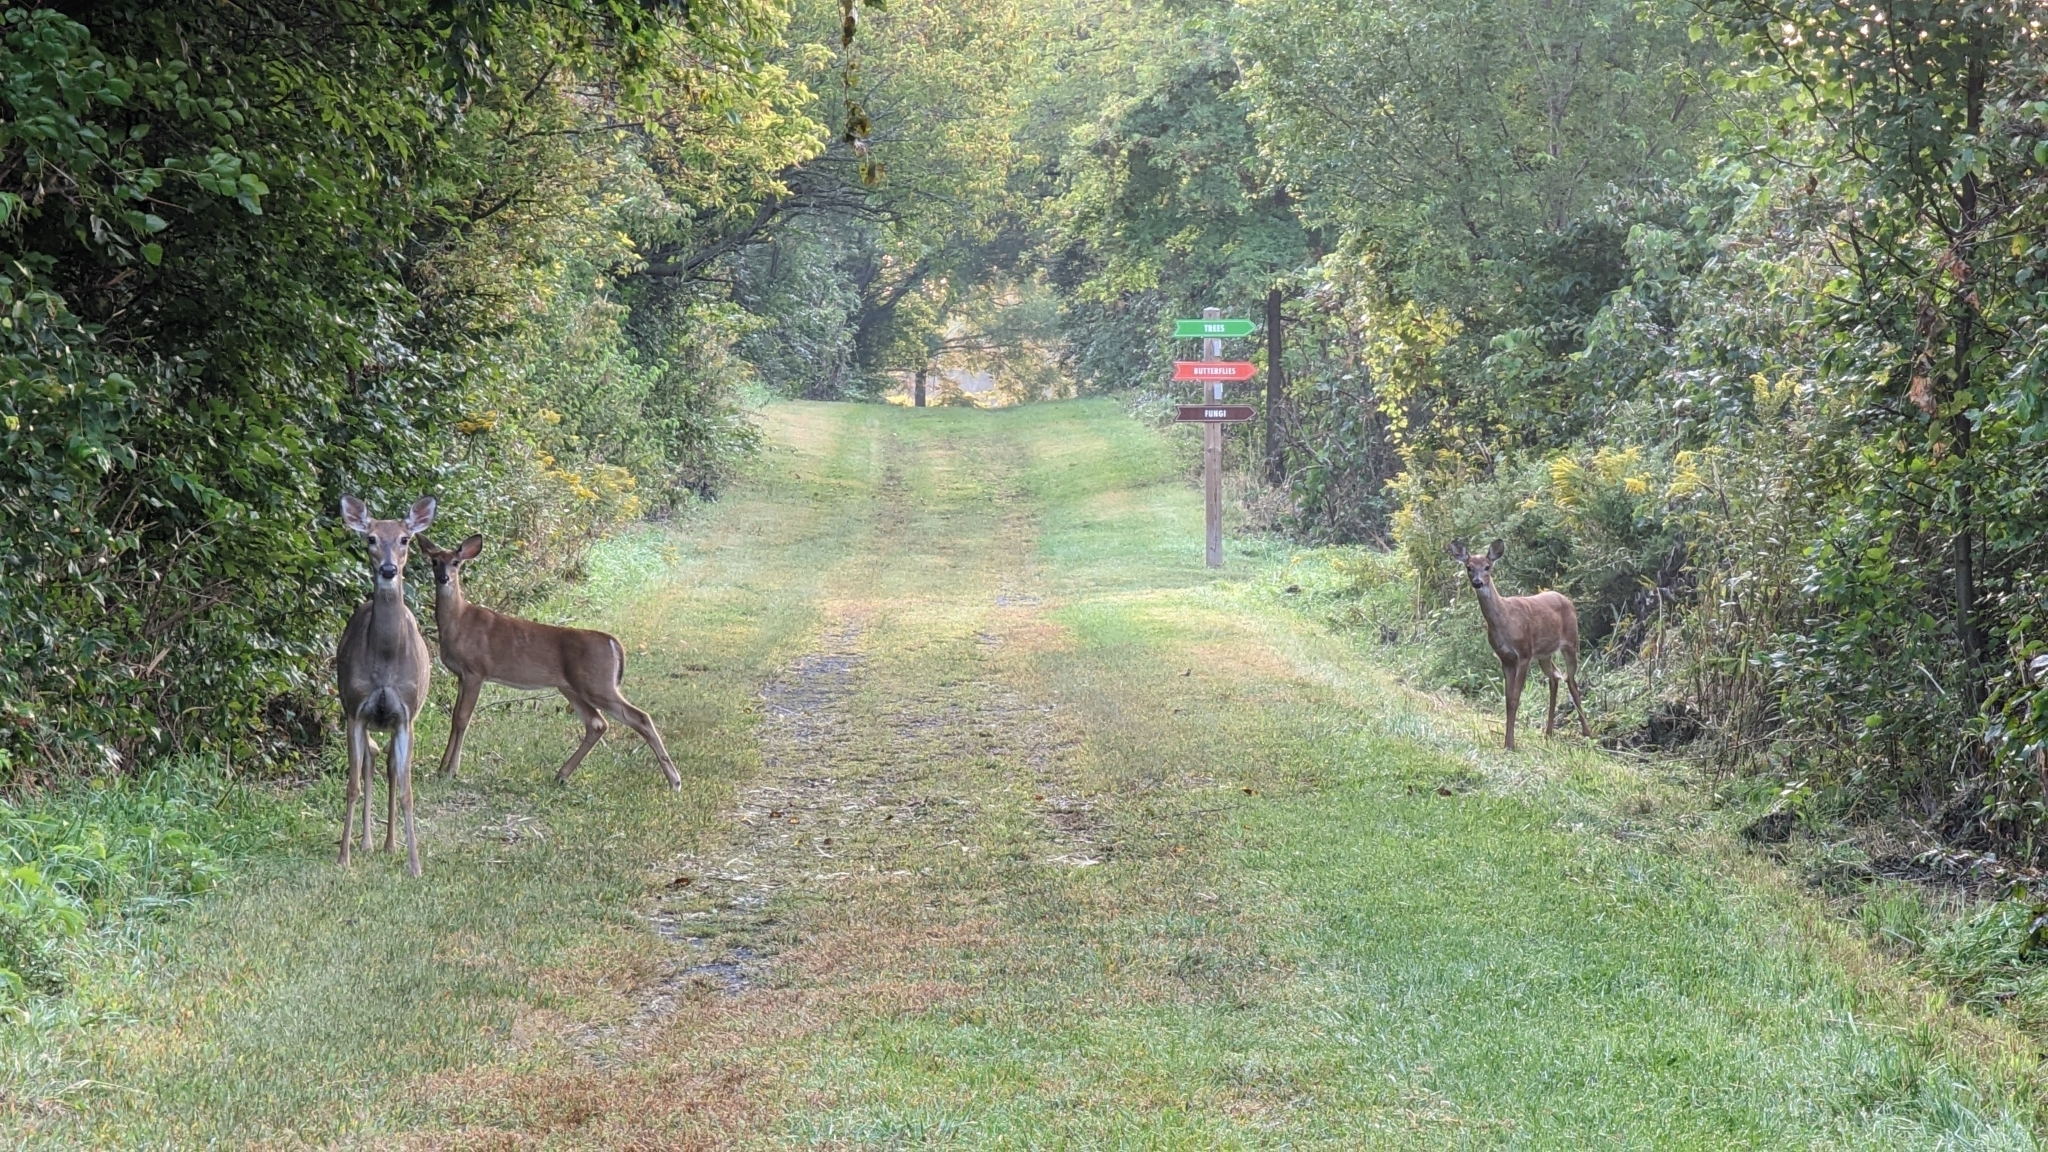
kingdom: Animalia
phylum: Chordata
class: Mammalia
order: Artiodactyla
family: Cervidae
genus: Odocoileus
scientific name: Odocoileus virginianus
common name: White-tailed deer
